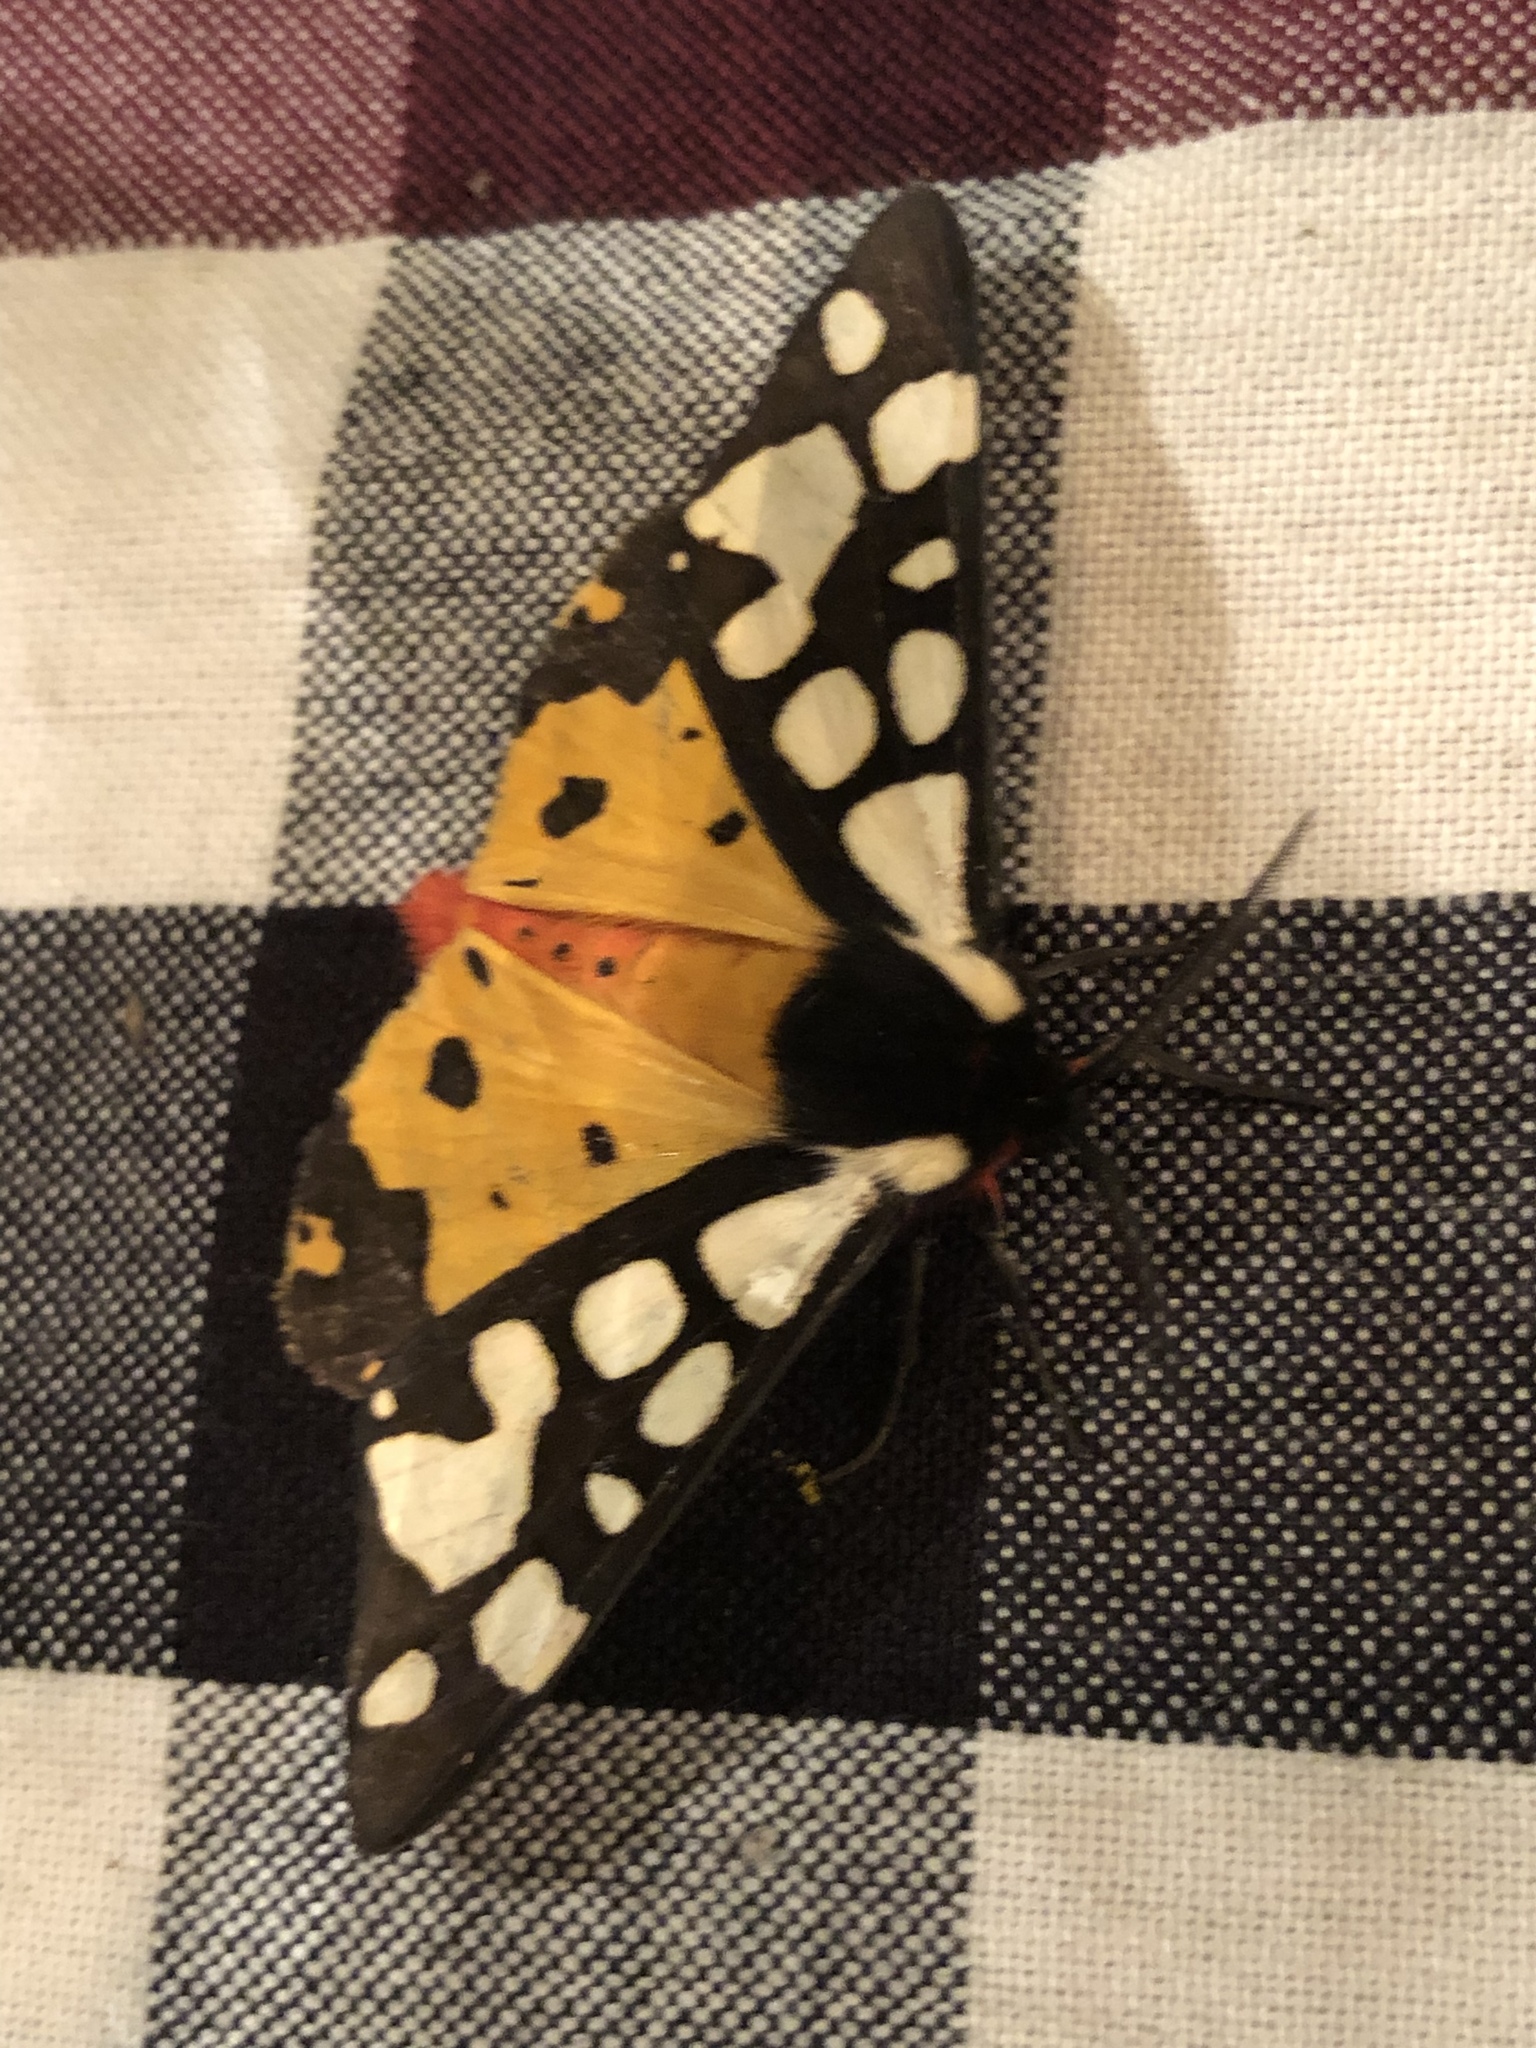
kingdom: Animalia
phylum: Arthropoda
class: Insecta
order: Lepidoptera
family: Erebidae
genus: Epicallia
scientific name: Epicallia villica
